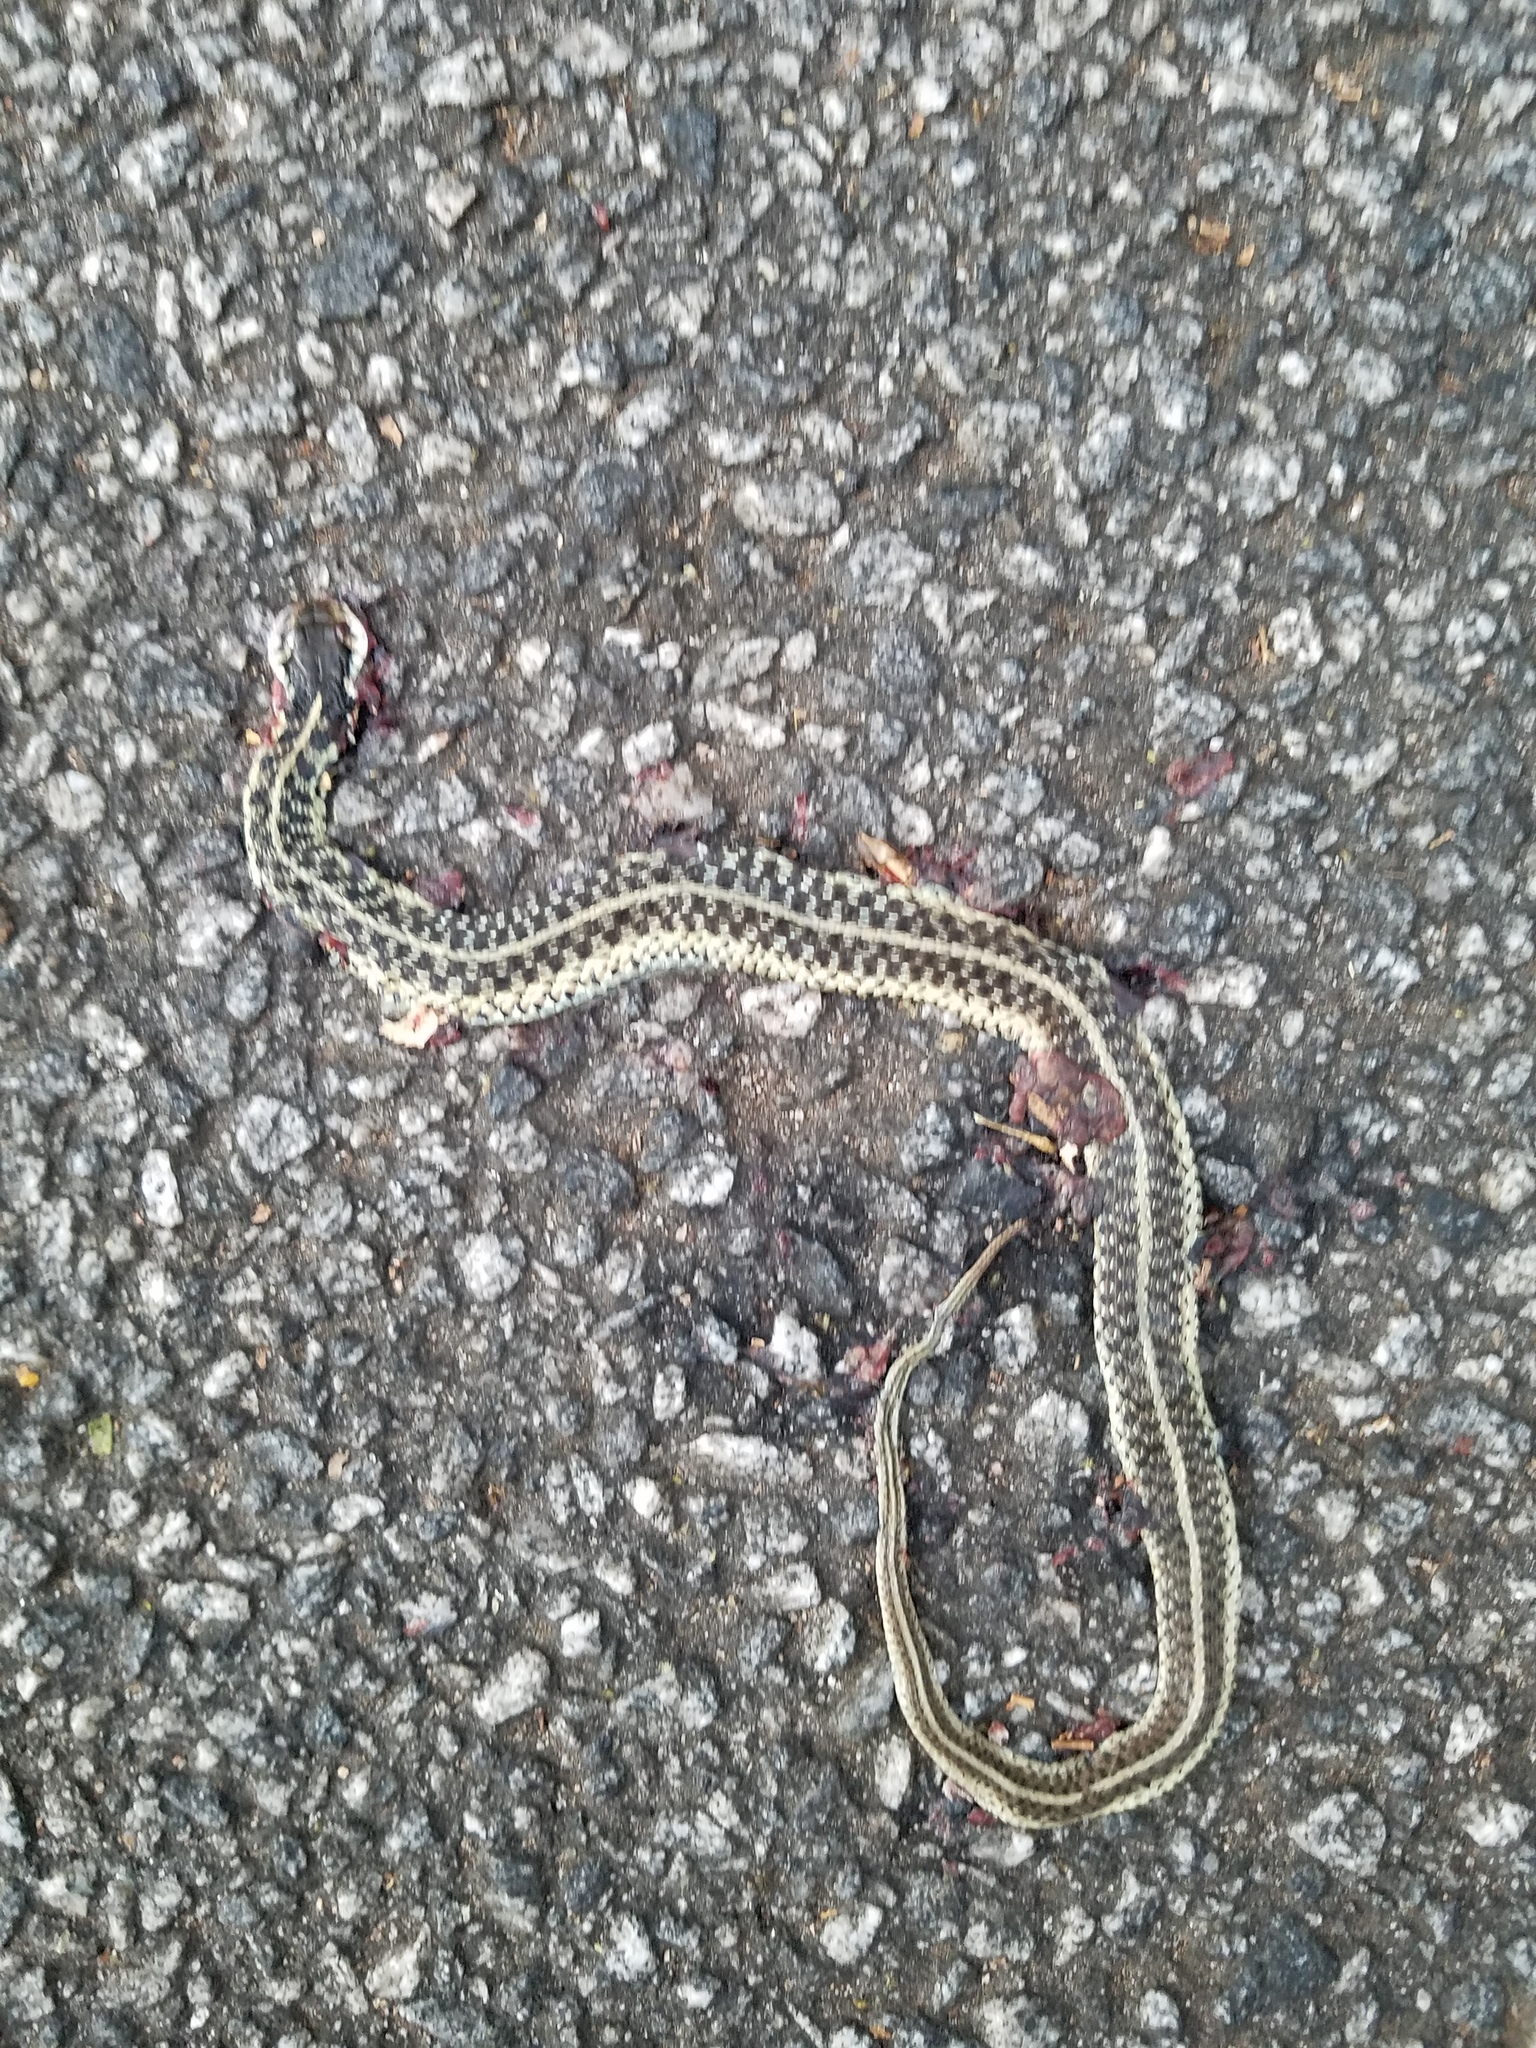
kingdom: Animalia
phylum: Chordata
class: Squamata
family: Colubridae
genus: Thamnophis
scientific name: Thamnophis sirtalis
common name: Common garter snake
